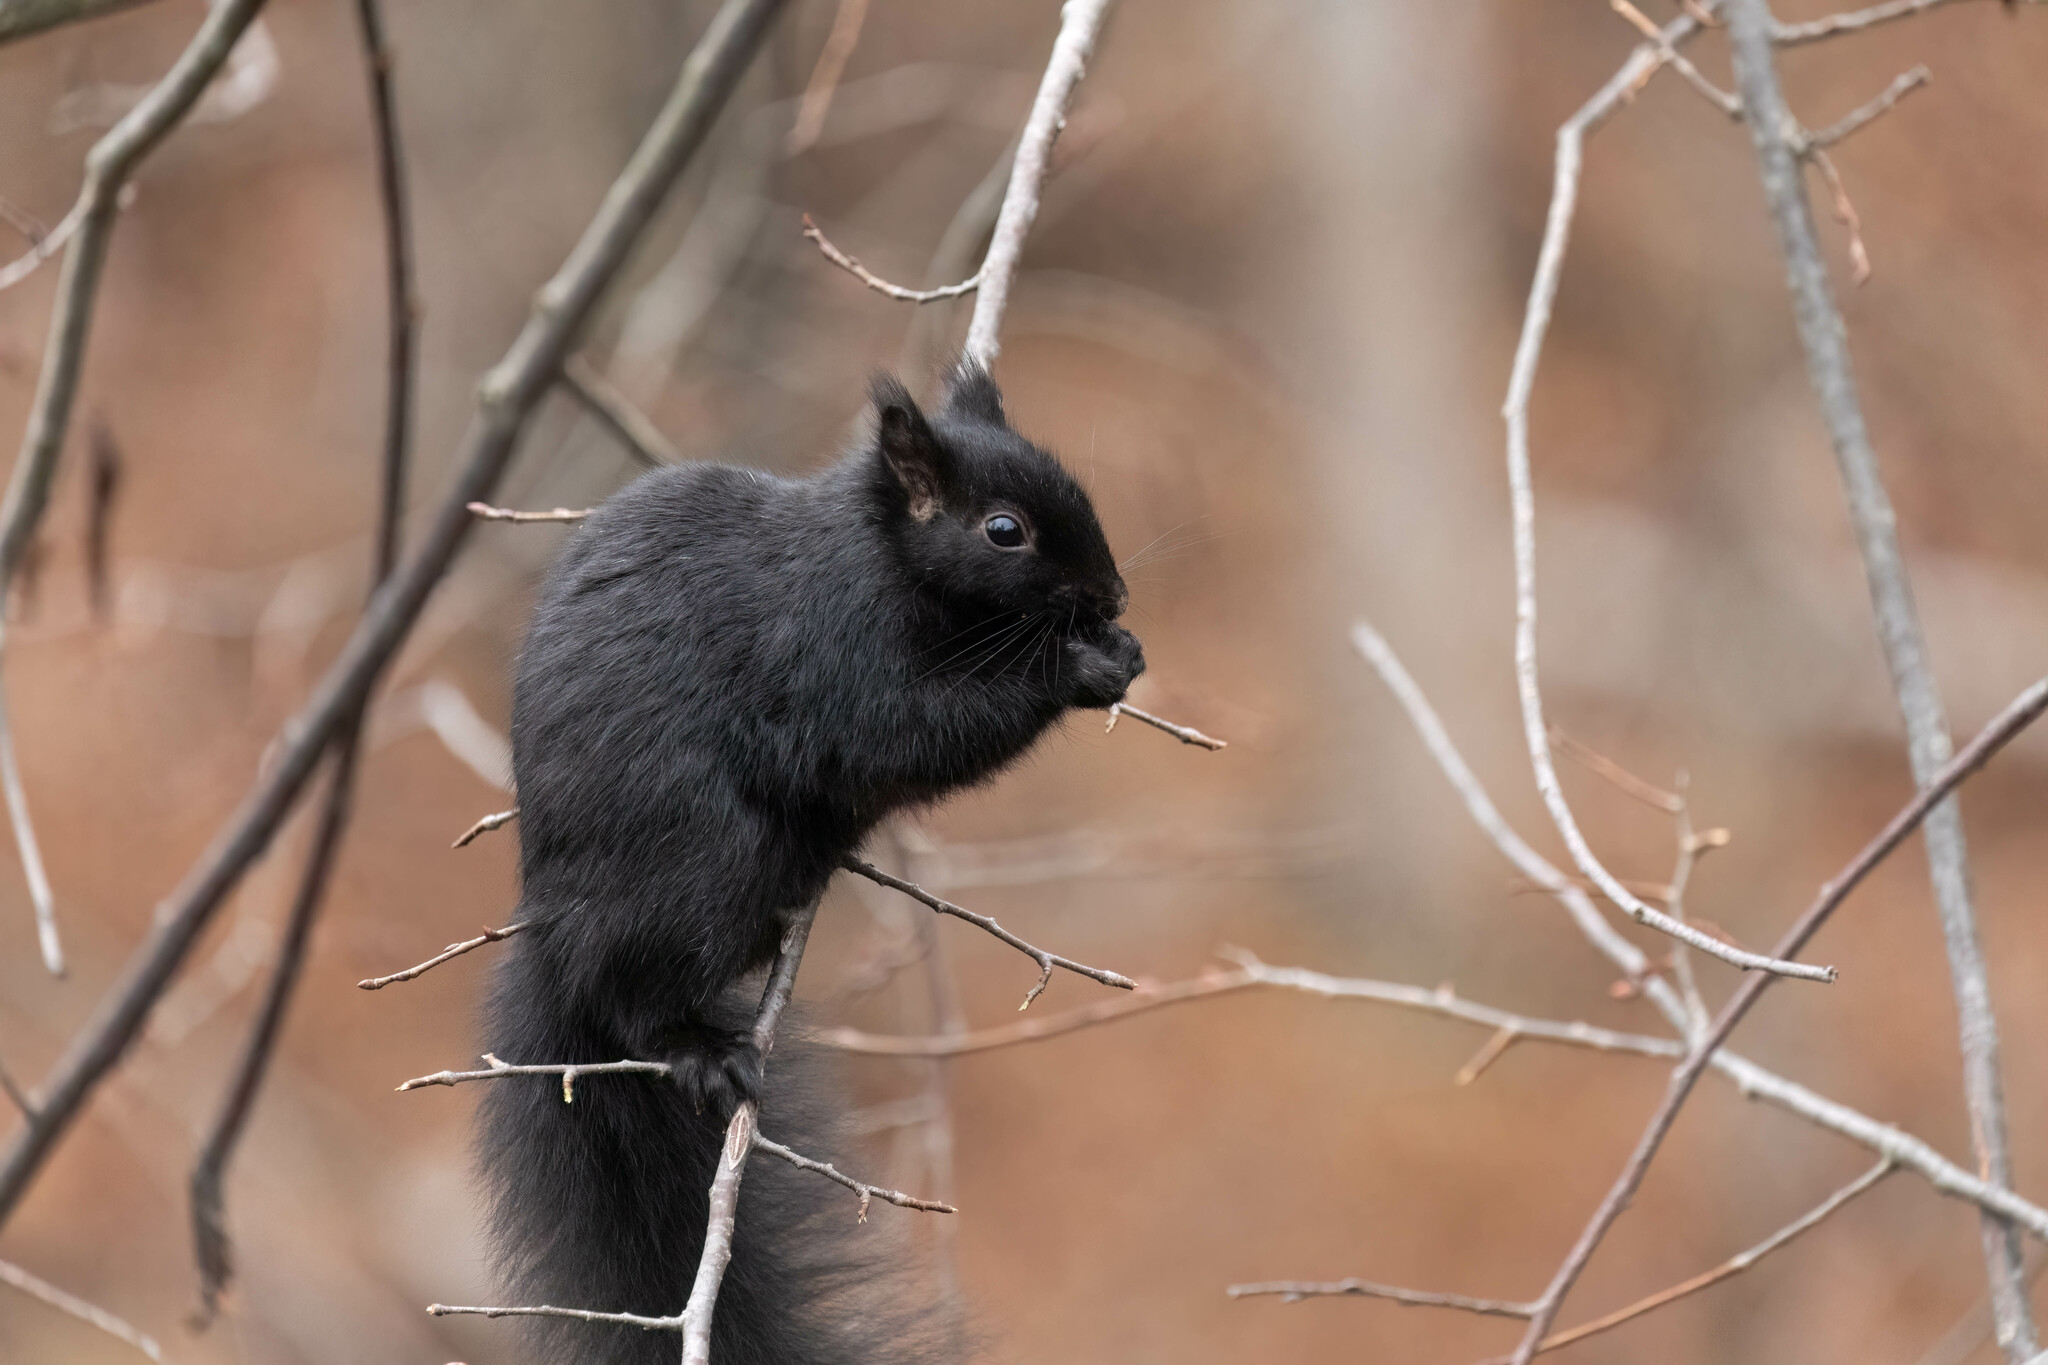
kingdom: Animalia
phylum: Chordata
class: Mammalia
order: Rodentia
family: Sciuridae
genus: Sciurus
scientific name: Sciurus carolinensis
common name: Eastern gray squirrel
